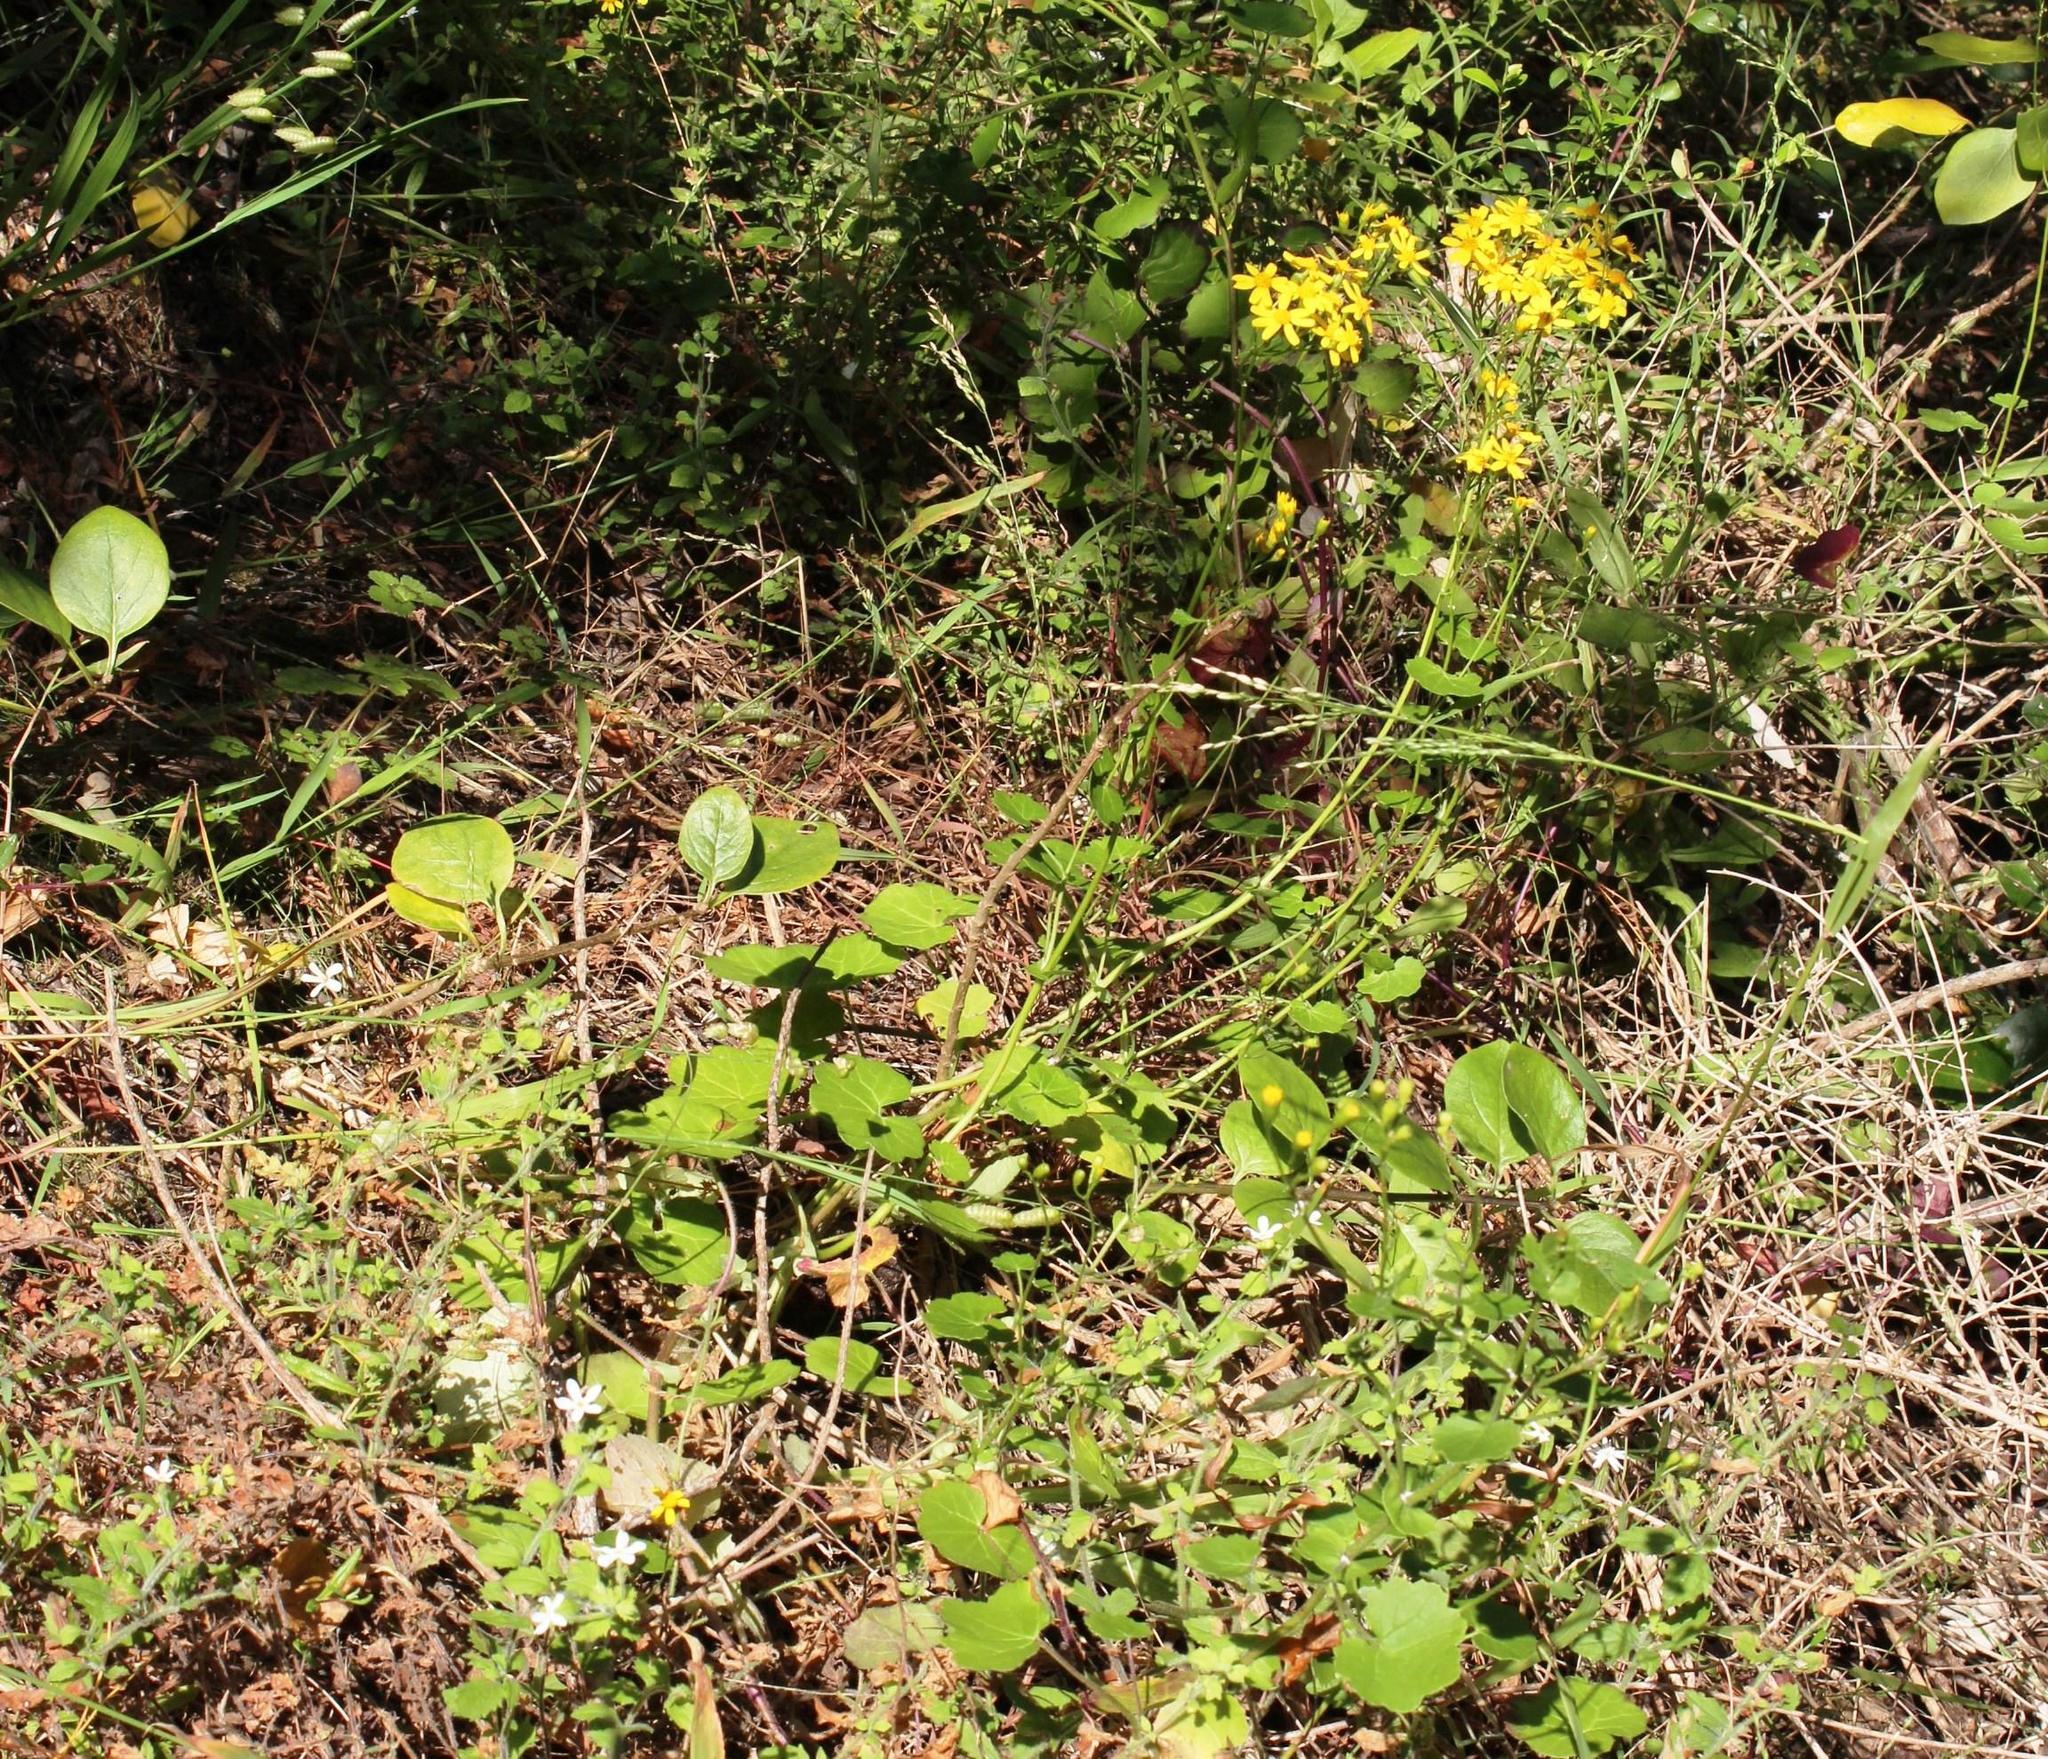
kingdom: Plantae
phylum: Tracheophyta
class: Magnoliopsida
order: Asterales
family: Asteraceae
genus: Cineraria
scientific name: Cineraria geifolia
